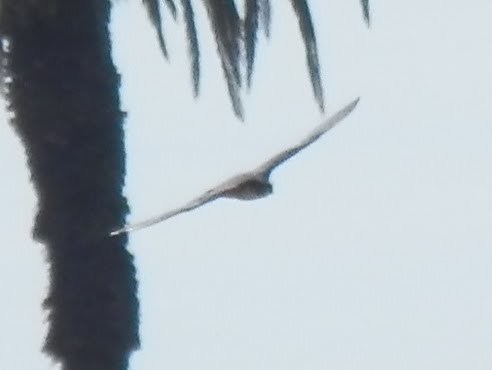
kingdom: Animalia
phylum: Chordata
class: Aves
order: Falconiformes
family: Falconidae
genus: Falco
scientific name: Falco peregrinus
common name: Peregrine falcon
